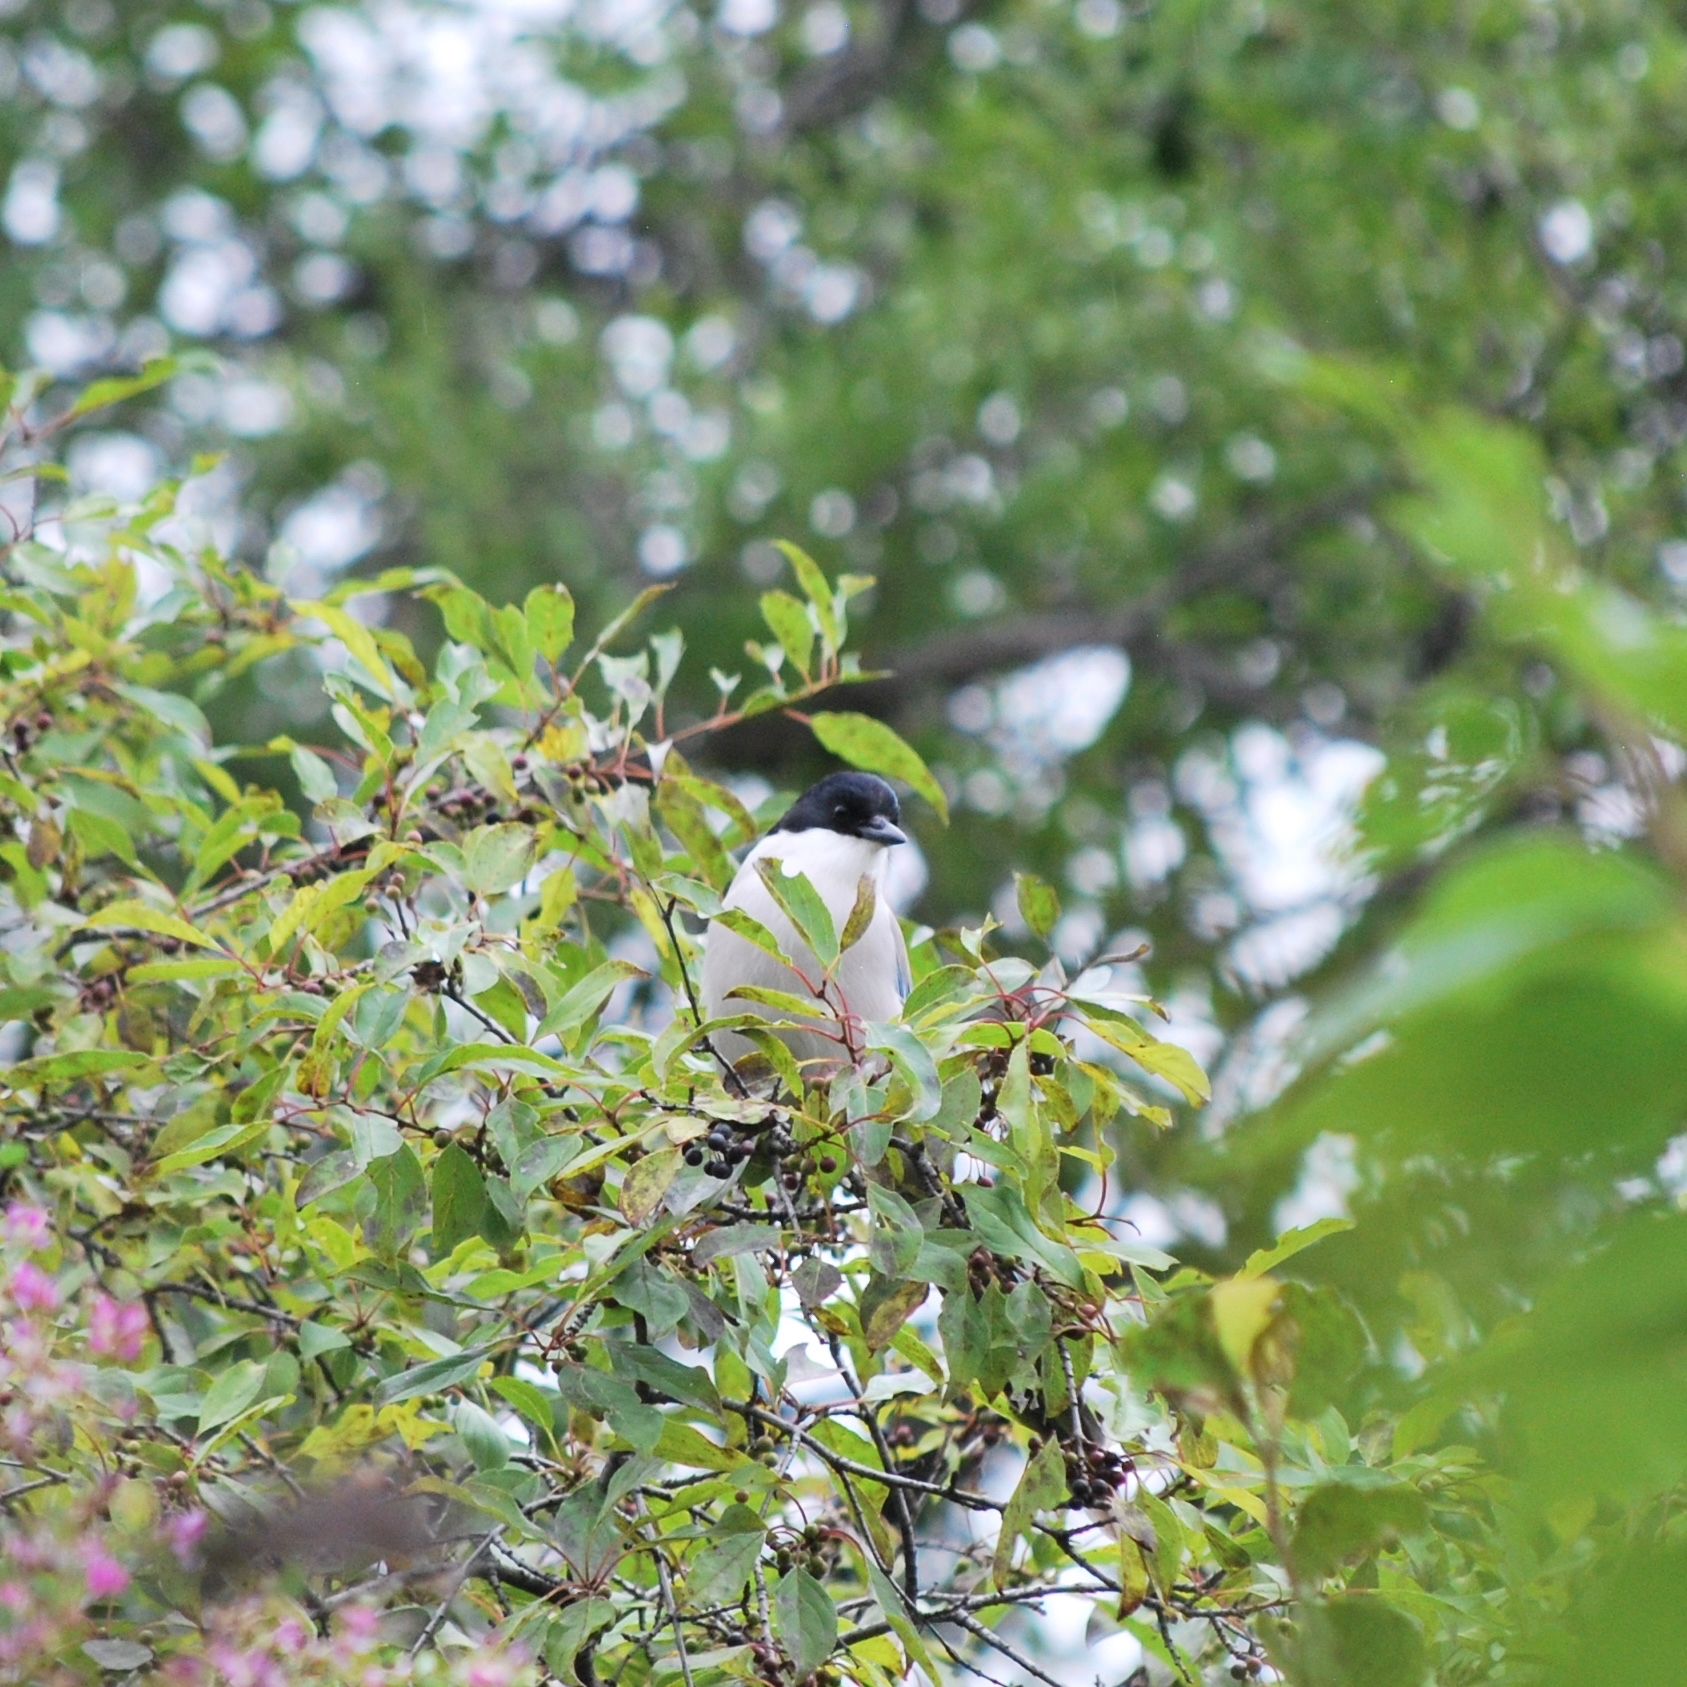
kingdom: Animalia
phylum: Chordata
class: Aves
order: Passeriformes
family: Corvidae
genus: Cyanopica
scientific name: Cyanopica cyanus
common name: Azure-winged magpie
